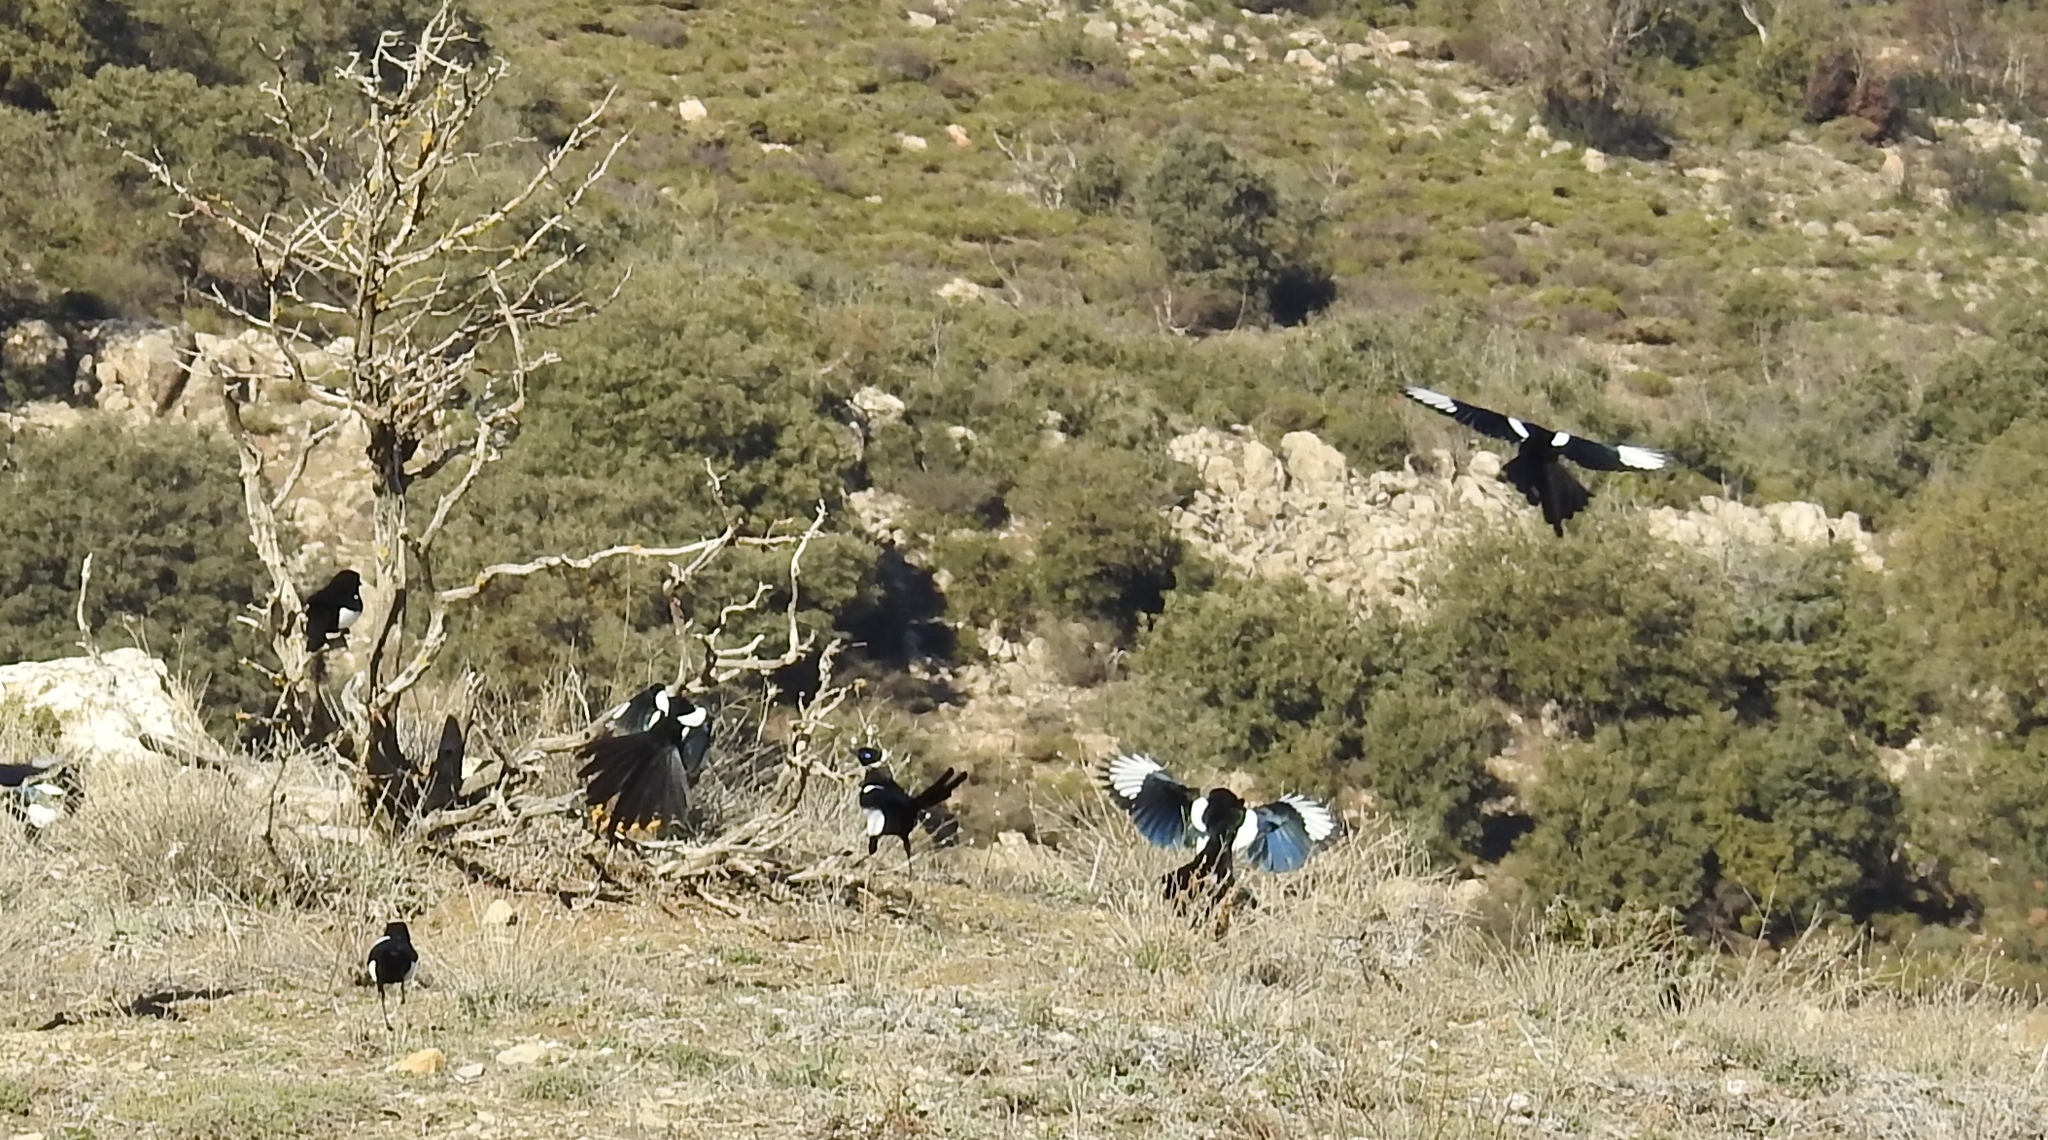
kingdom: Animalia
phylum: Chordata
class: Aves
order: Passeriformes
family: Corvidae
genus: Pica
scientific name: Pica mauritanica
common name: Maghreb magpie
